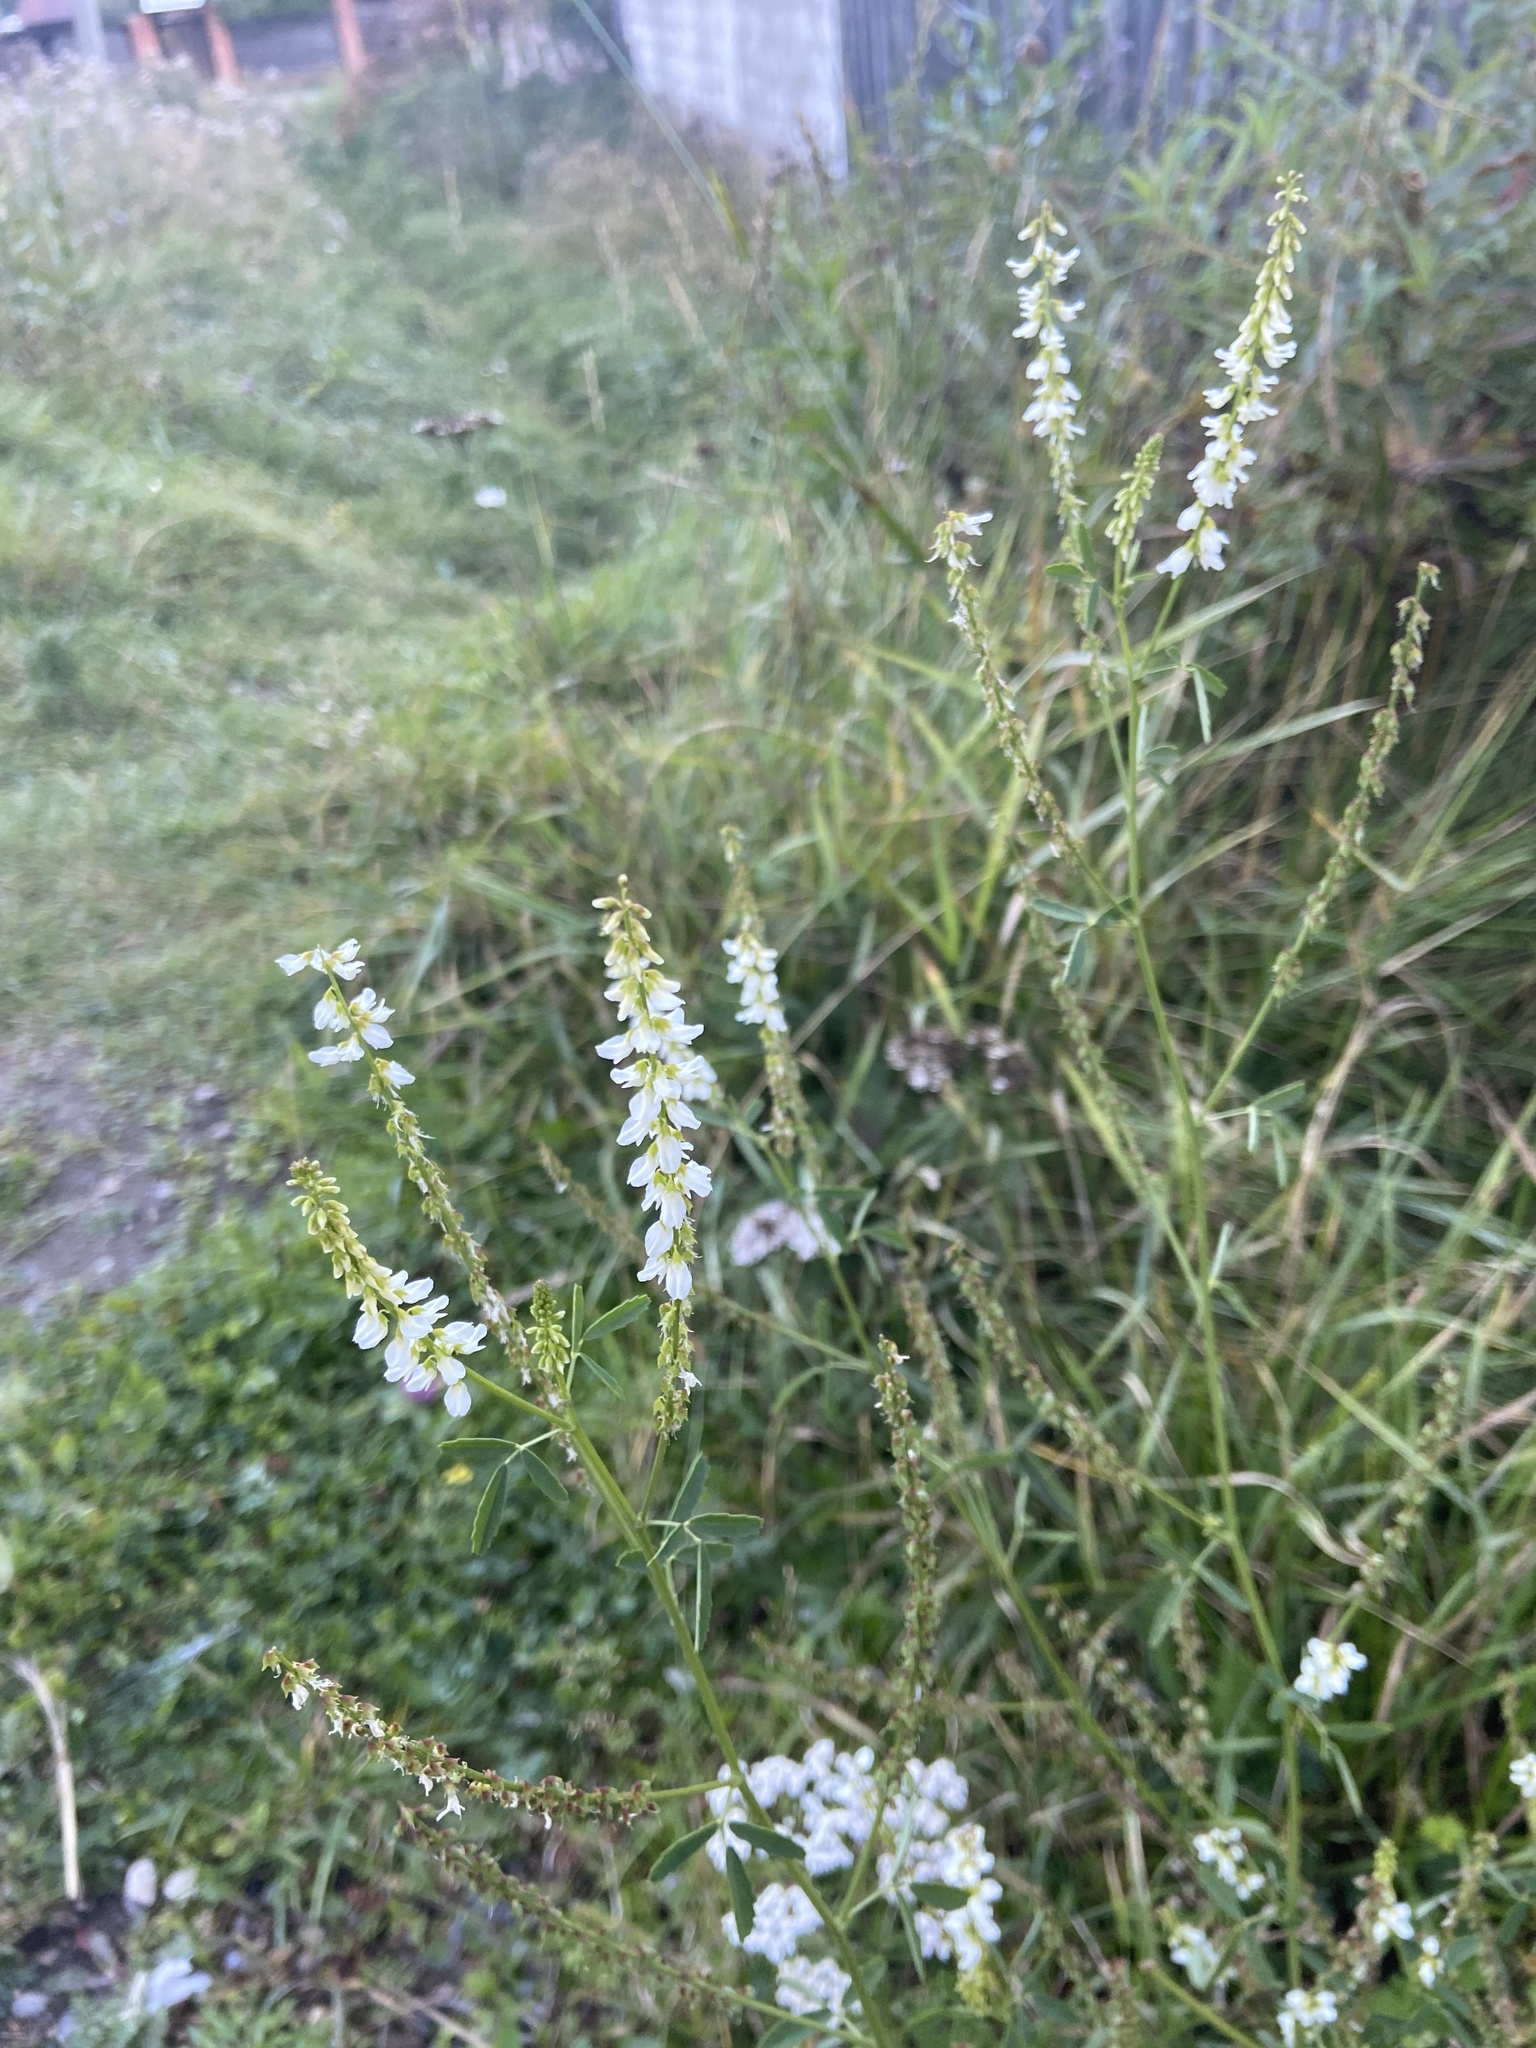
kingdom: Plantae
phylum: Tracheophyta
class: Magnoliopsida
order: Fabales
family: Fabaceae
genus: Melilotus
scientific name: Melilotus albus
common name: White melilot
